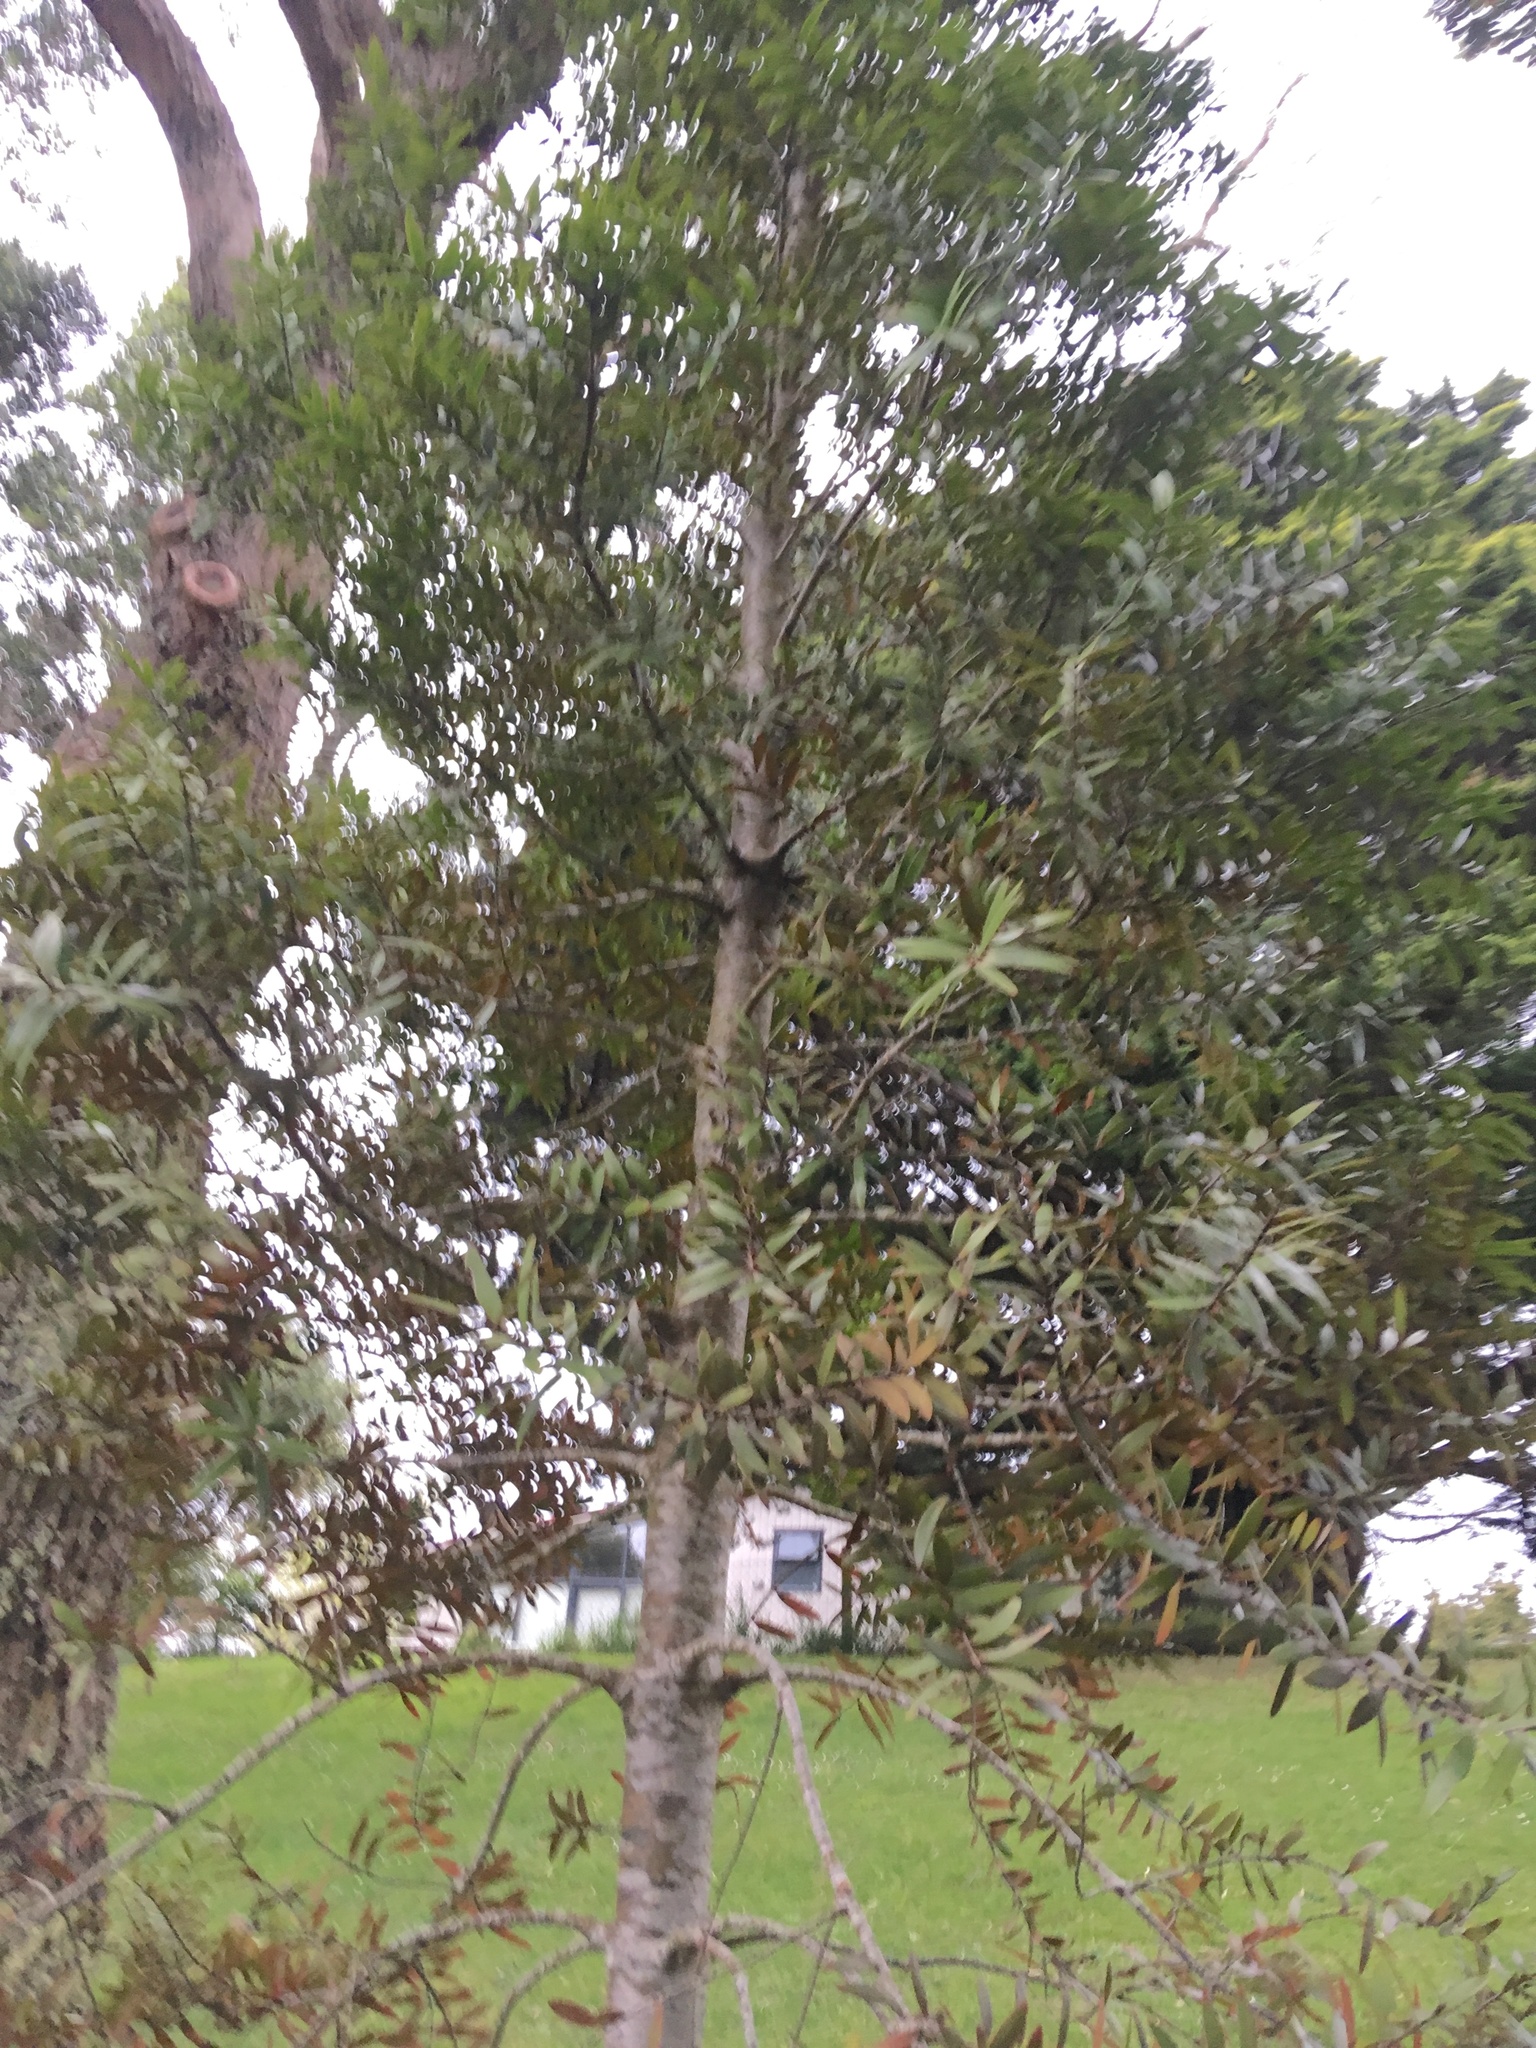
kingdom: Plantae
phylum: Tracheophyta
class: Pinopsida
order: Pinales
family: Araucariaceae
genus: Agathis
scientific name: Agathis australis
